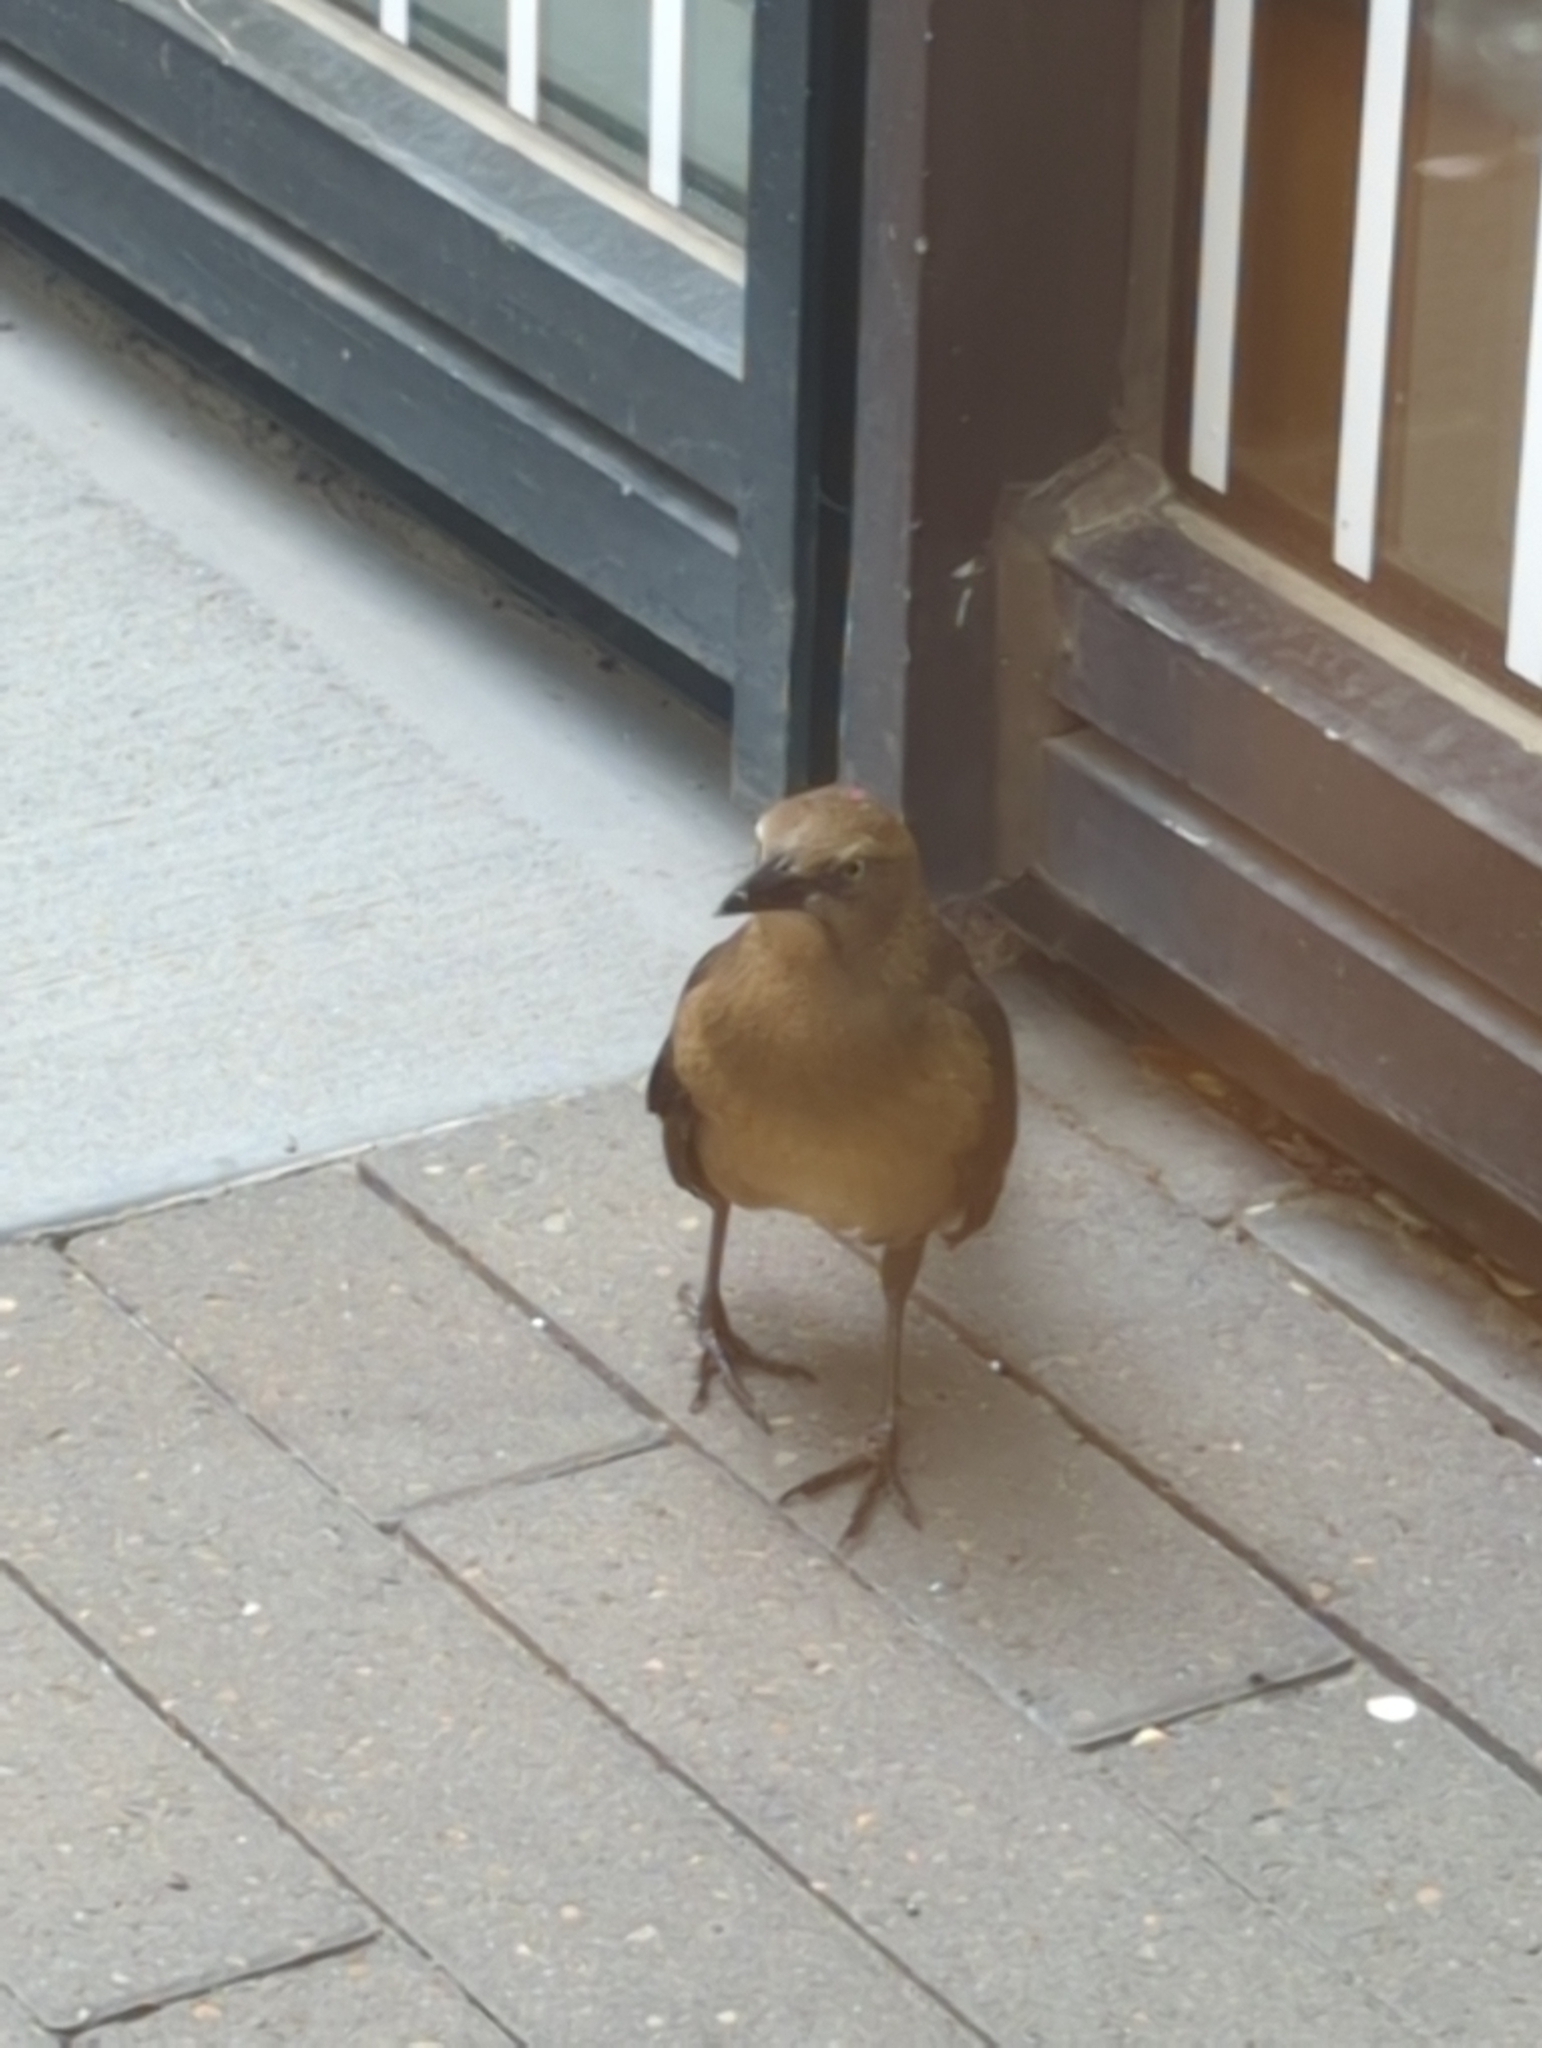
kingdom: Animalia
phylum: Chordata
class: Aves
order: Passeriformes
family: Icteridae
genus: Quiscalus
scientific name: Quiscalus mexicanus
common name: Great-tailed grackle
